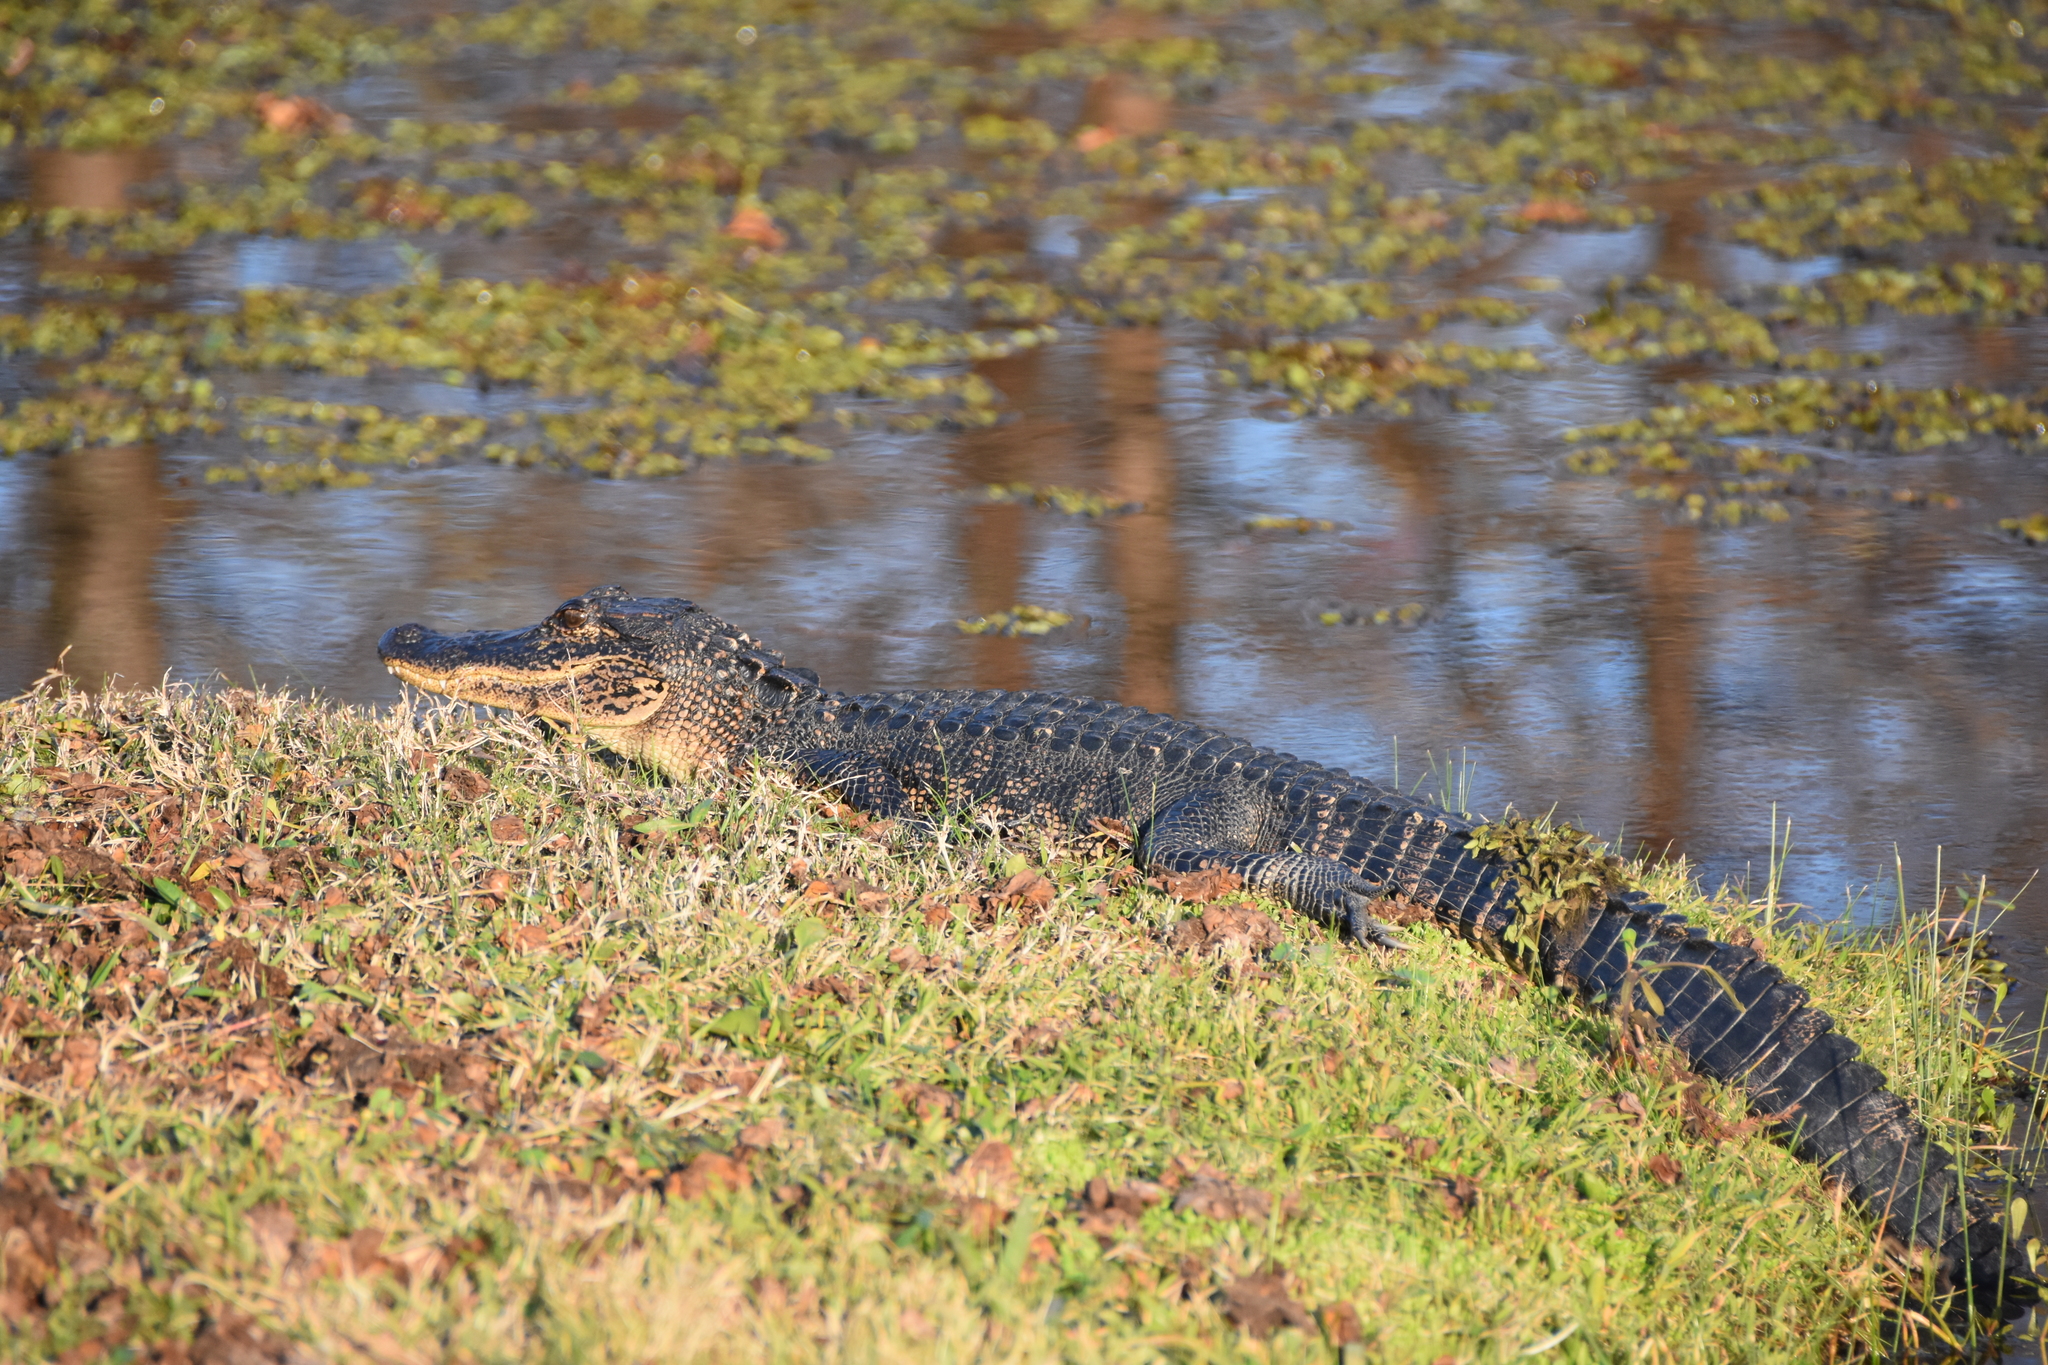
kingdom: Animalia
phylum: Chordata
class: Crocodylia
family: Alligatoridae
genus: Alligator
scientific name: Alligator mississippiensis
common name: American alligator
